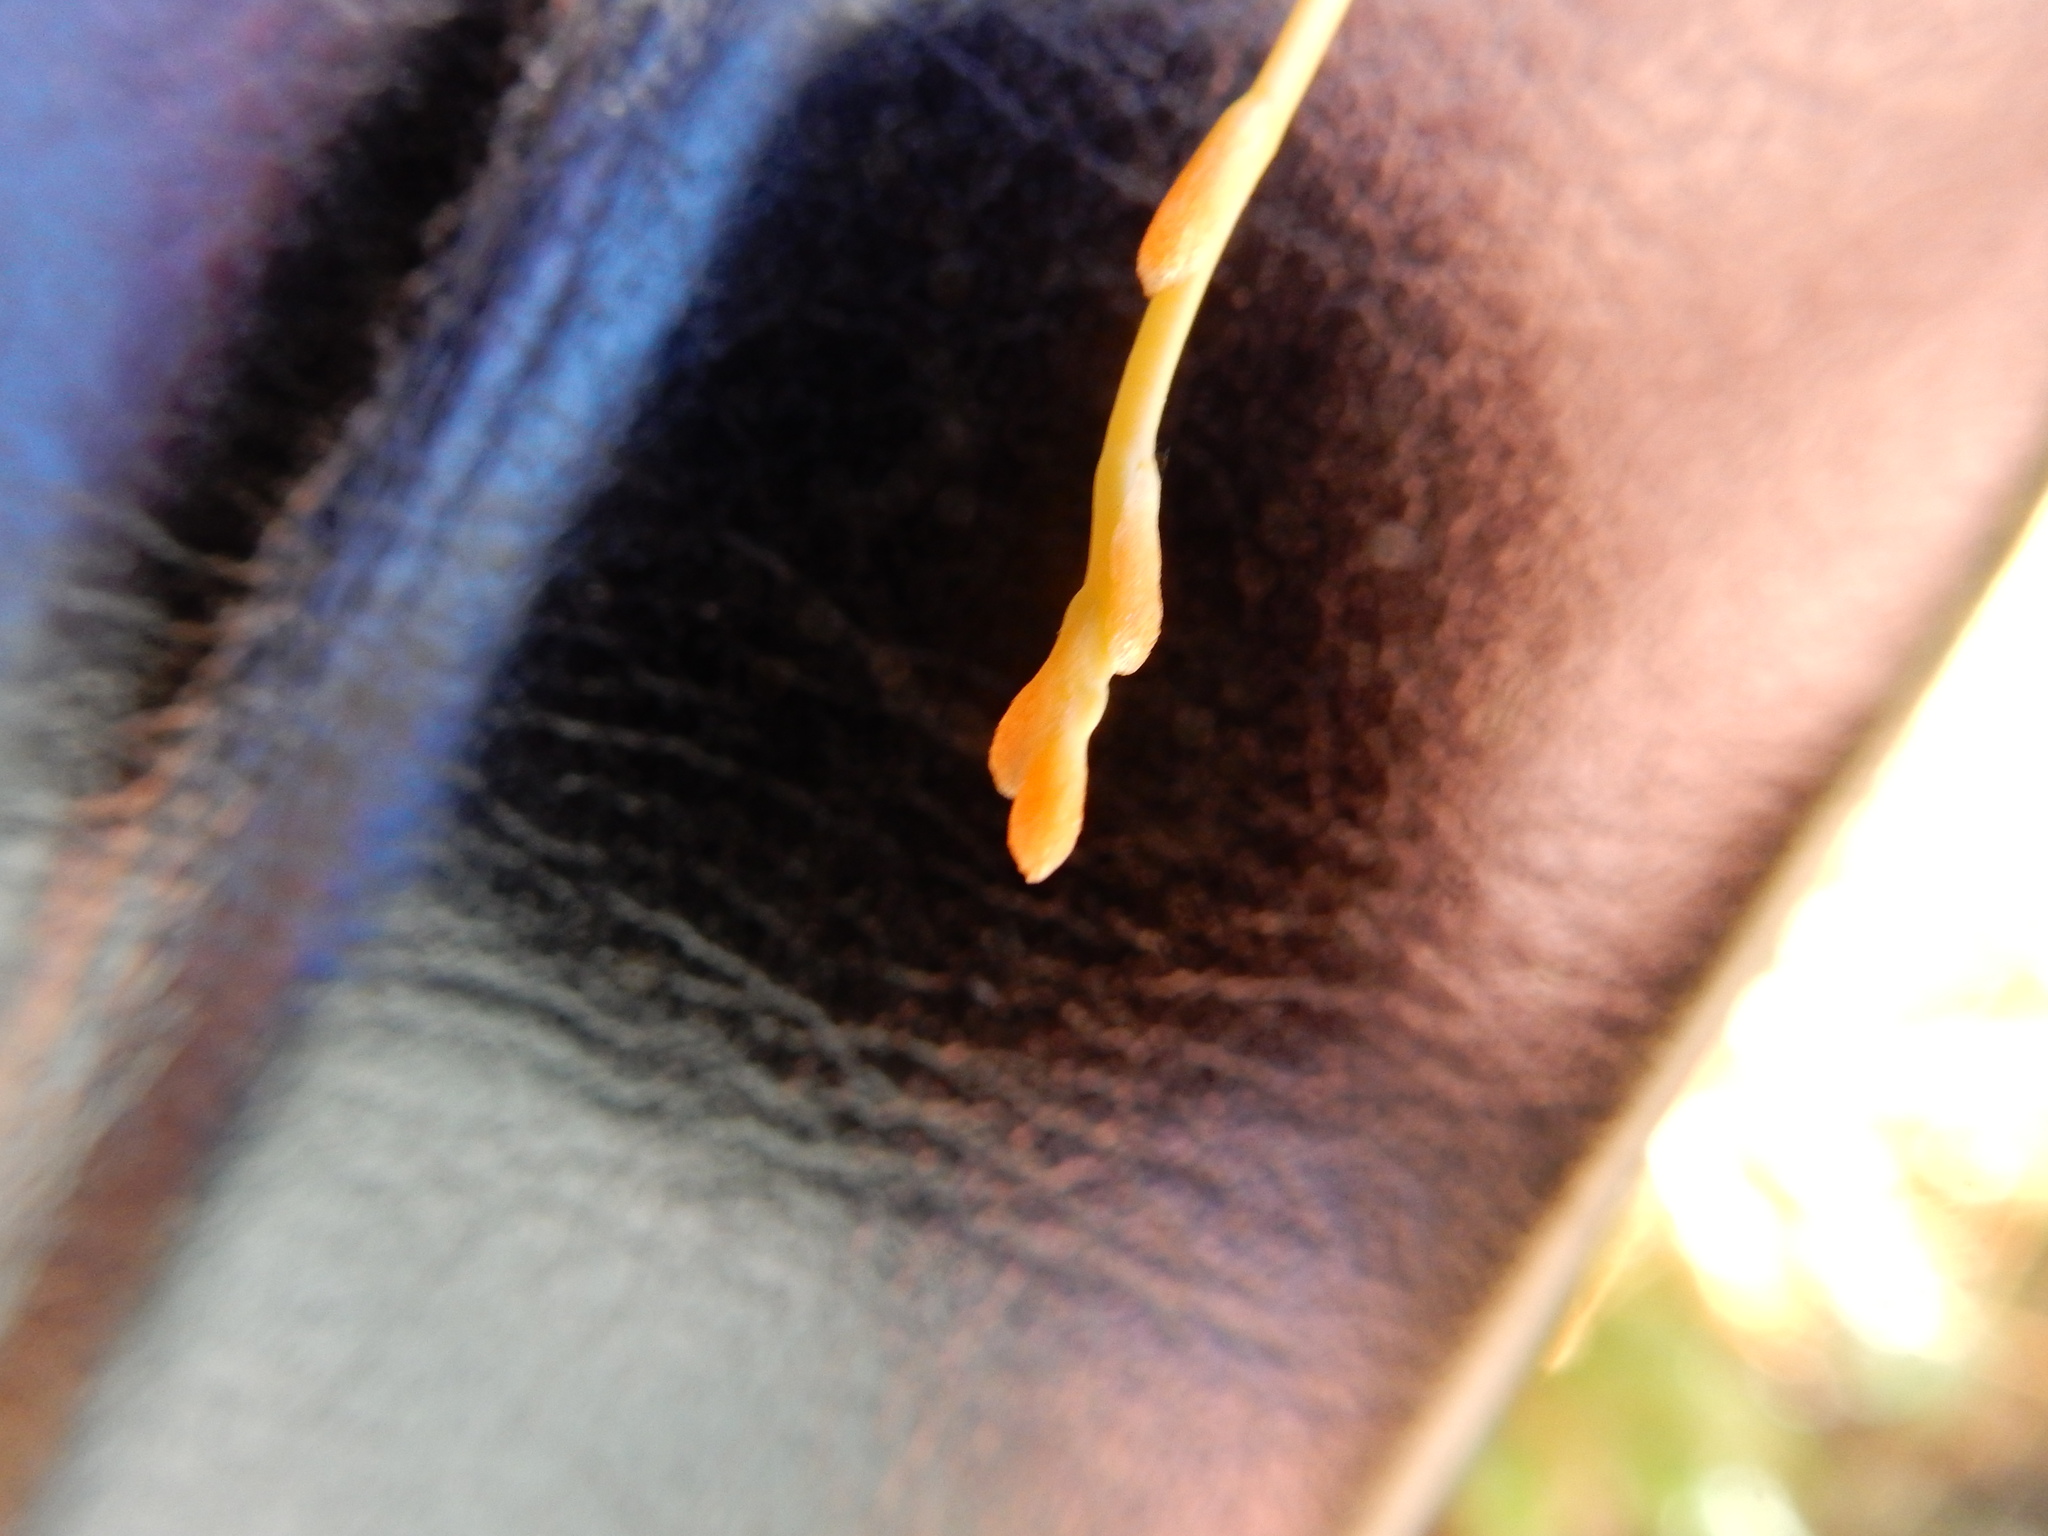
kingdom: Plantae
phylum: Tracheophyta
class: Magnoliopsida
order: Solanales
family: Convolvulaceae
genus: Cuscuta
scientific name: Cuscuta subinclusa
